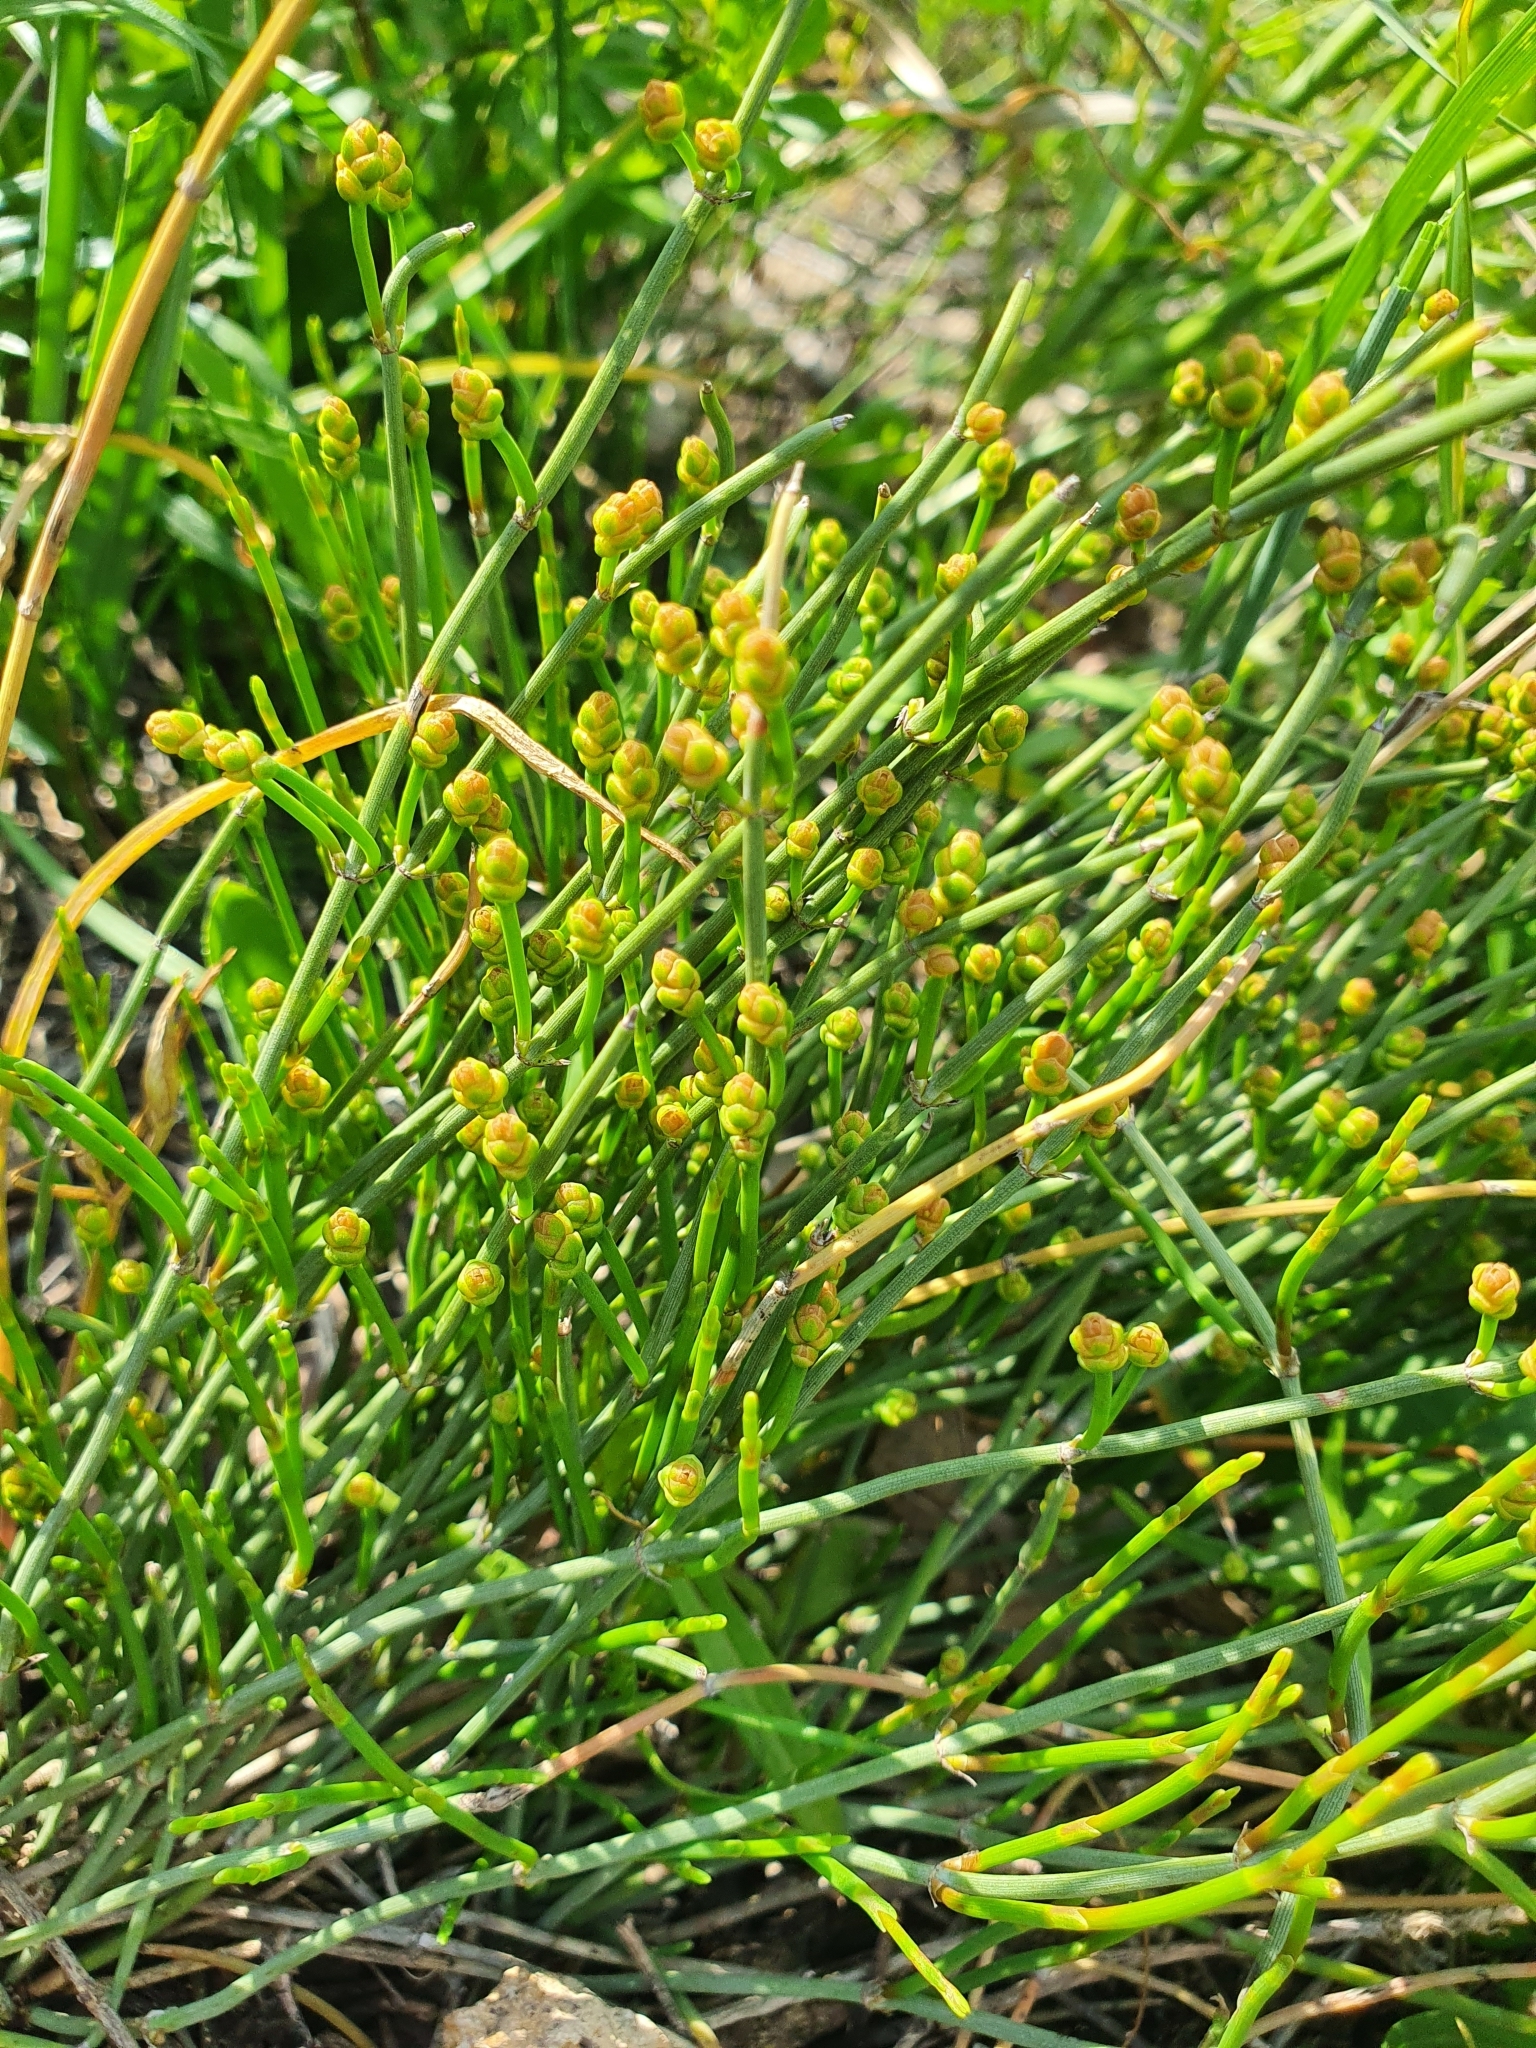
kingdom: Plantae
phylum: Tracheophyta
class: Gnetopsida
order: Ephedrales
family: Ephedraceae
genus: Ephedra
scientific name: Ephedra distachya
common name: Sea grape
